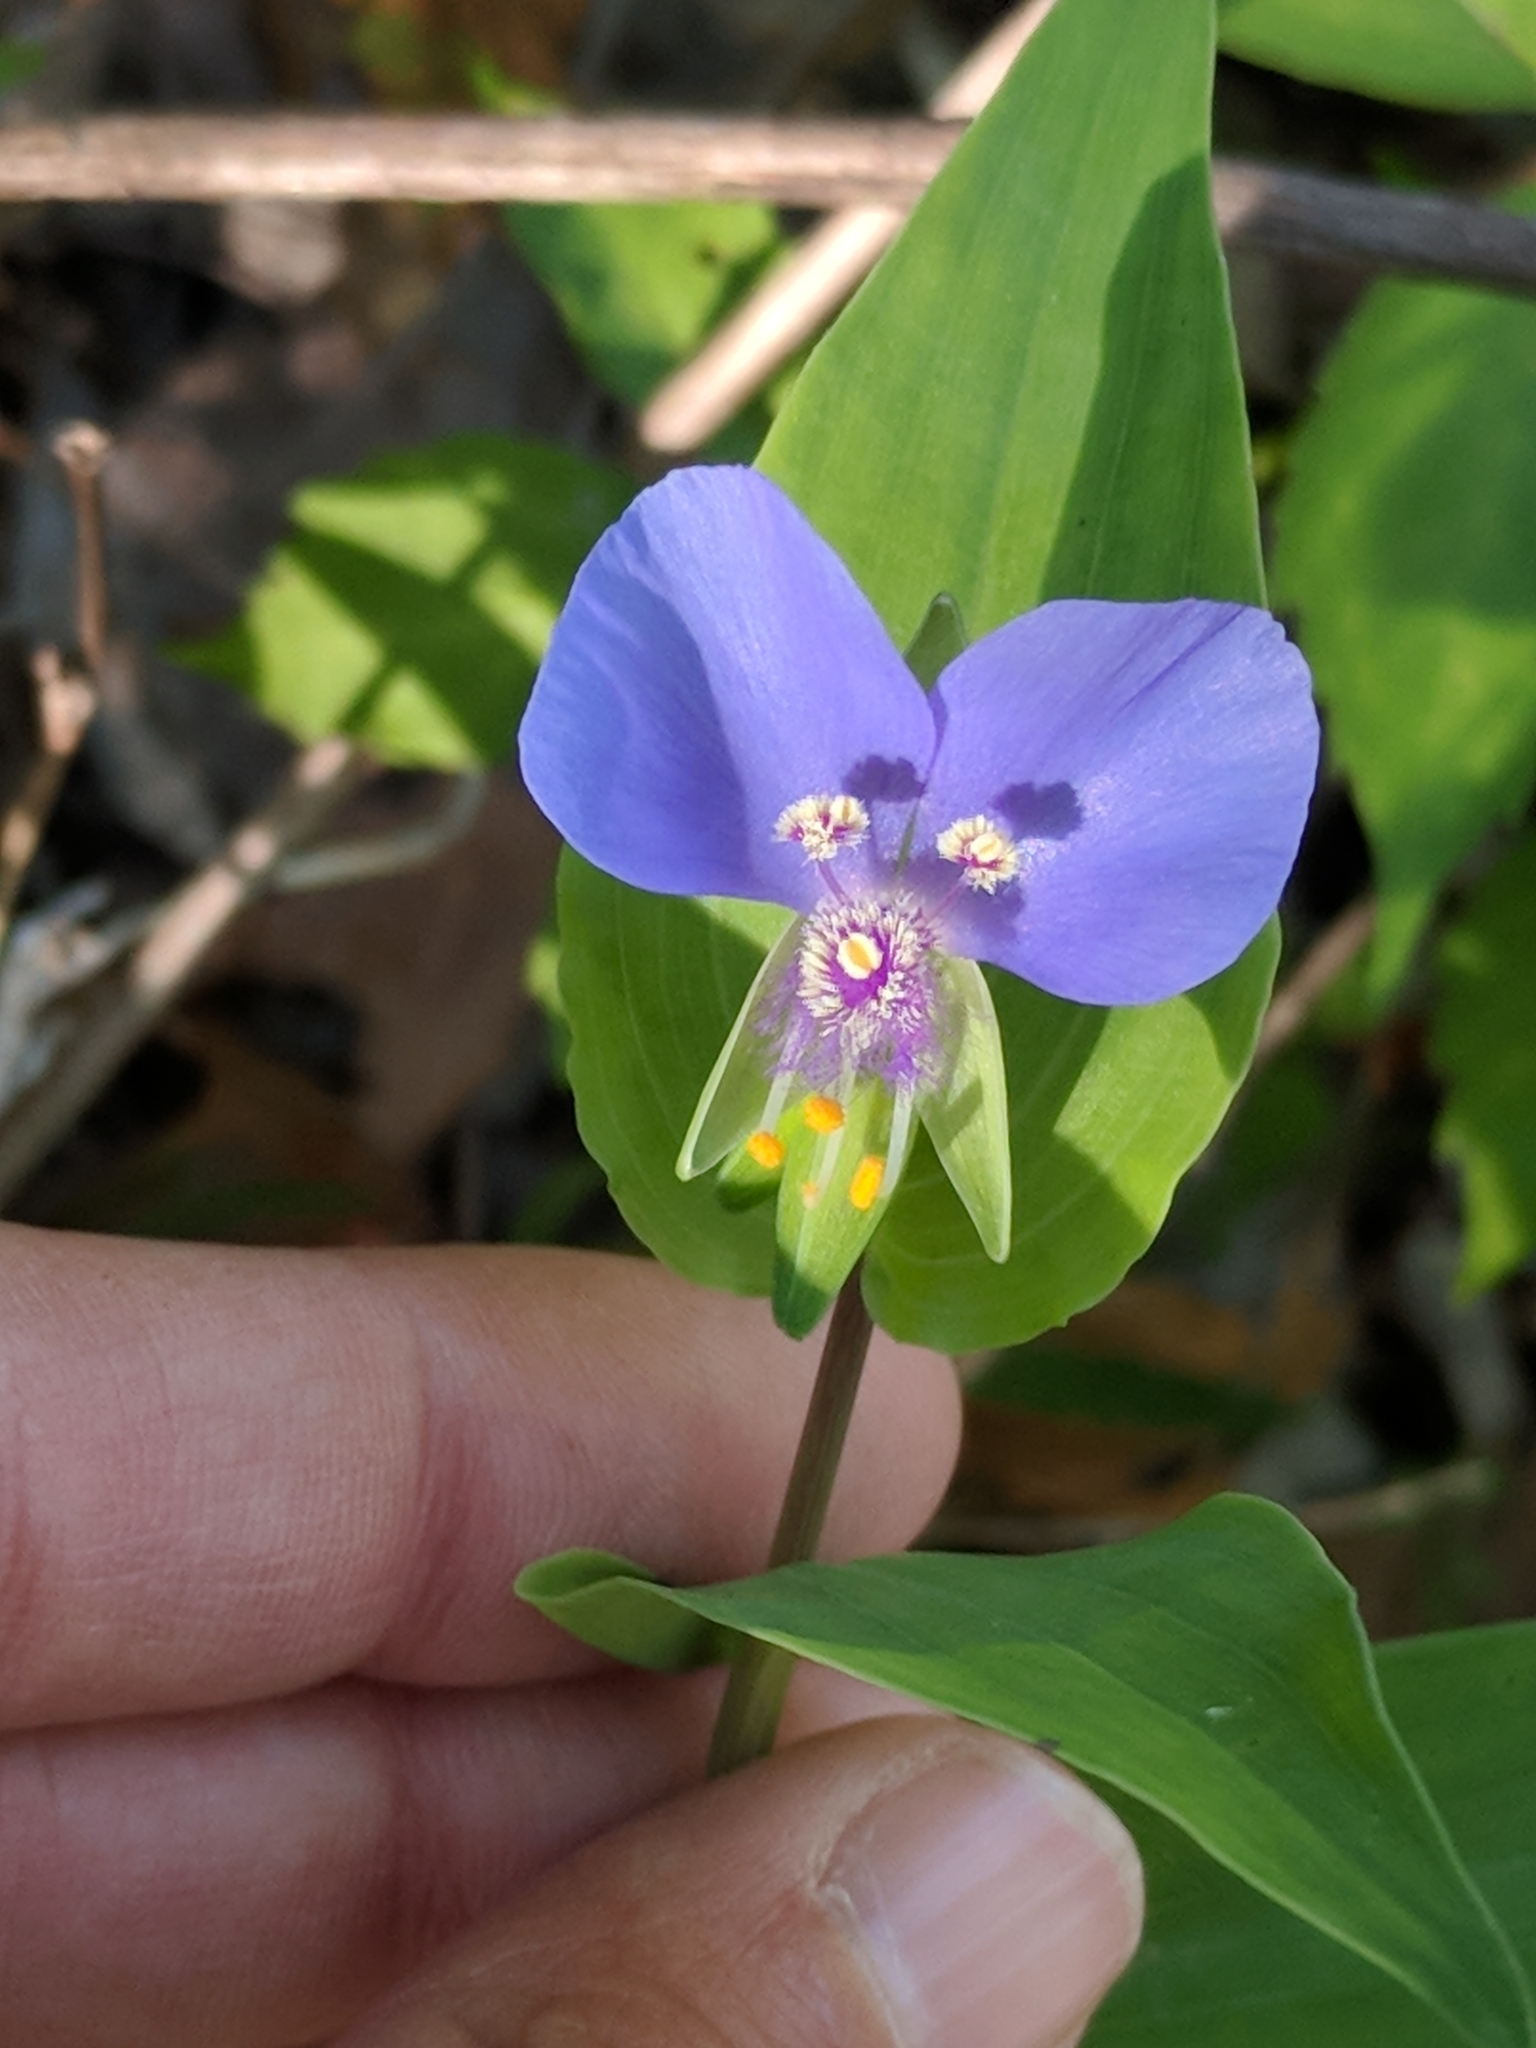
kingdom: Plantae
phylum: Tracheophyta
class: Liliopsida
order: Commelinales
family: Commelinaceae
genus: Tinantia
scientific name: Tinantia anomala
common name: False dayflower
